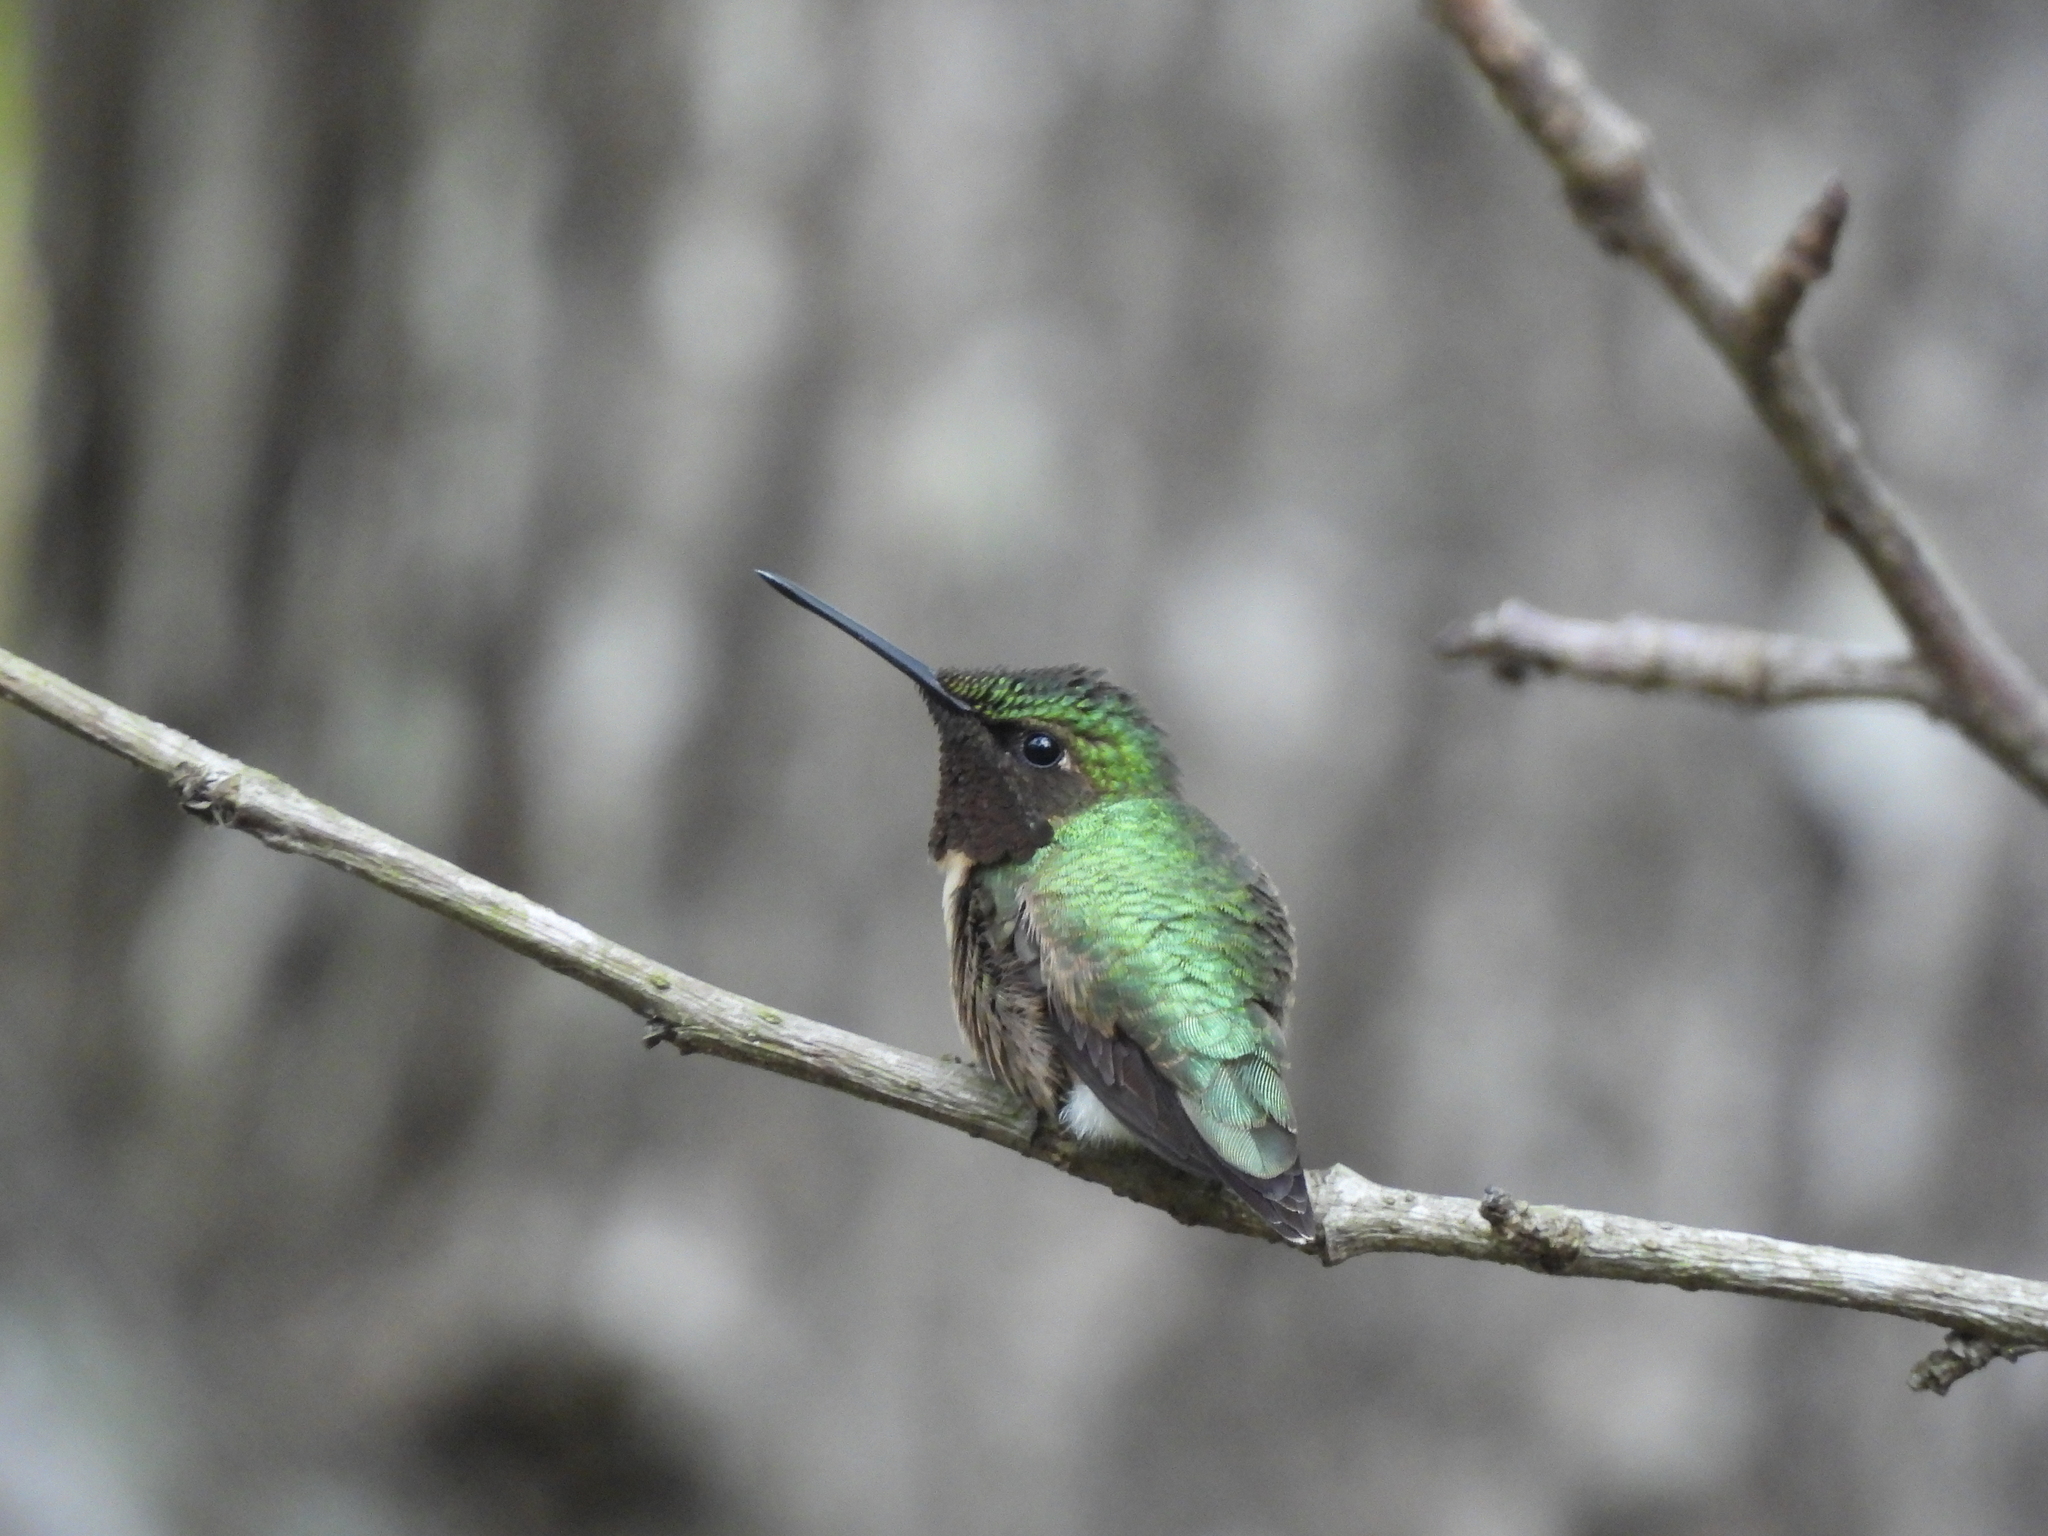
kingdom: Animalia
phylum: Chordata
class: Aves
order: Apodiformes
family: Trochilidae
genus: Archilochus
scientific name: Archilochus colubris
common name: Ruby-throated hummingbird
